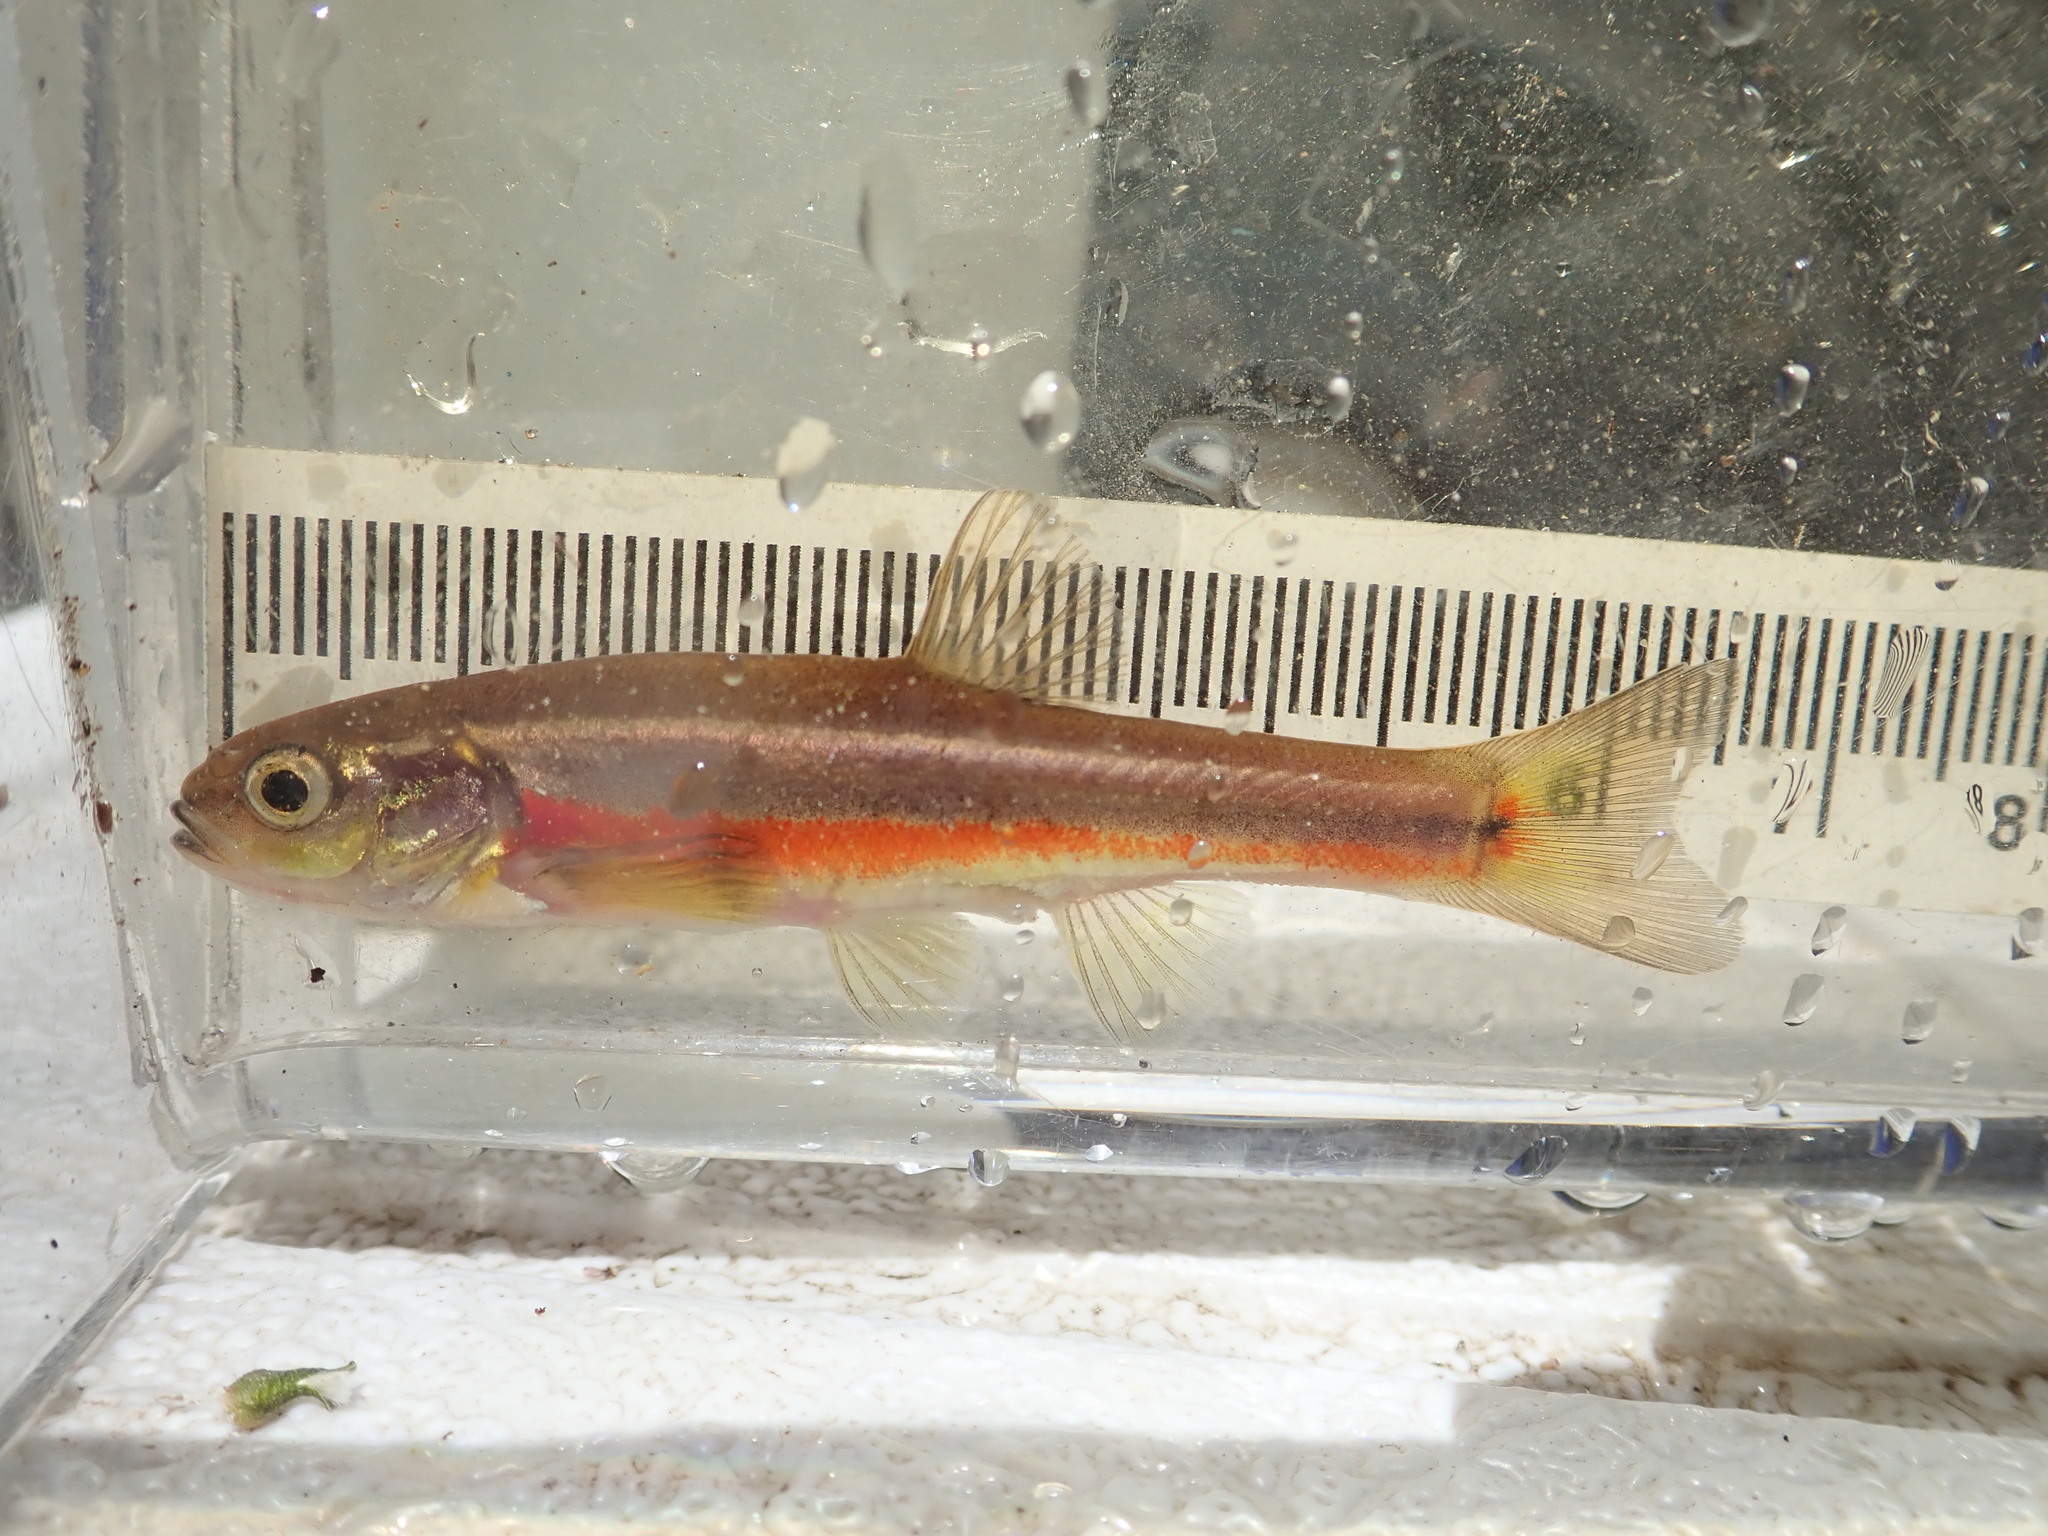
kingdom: Animalia
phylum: Chordata
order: Cypriniformes
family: Cyprinidae
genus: Chrosomus
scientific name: Chrosomus neogaeus
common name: Finescale dace
